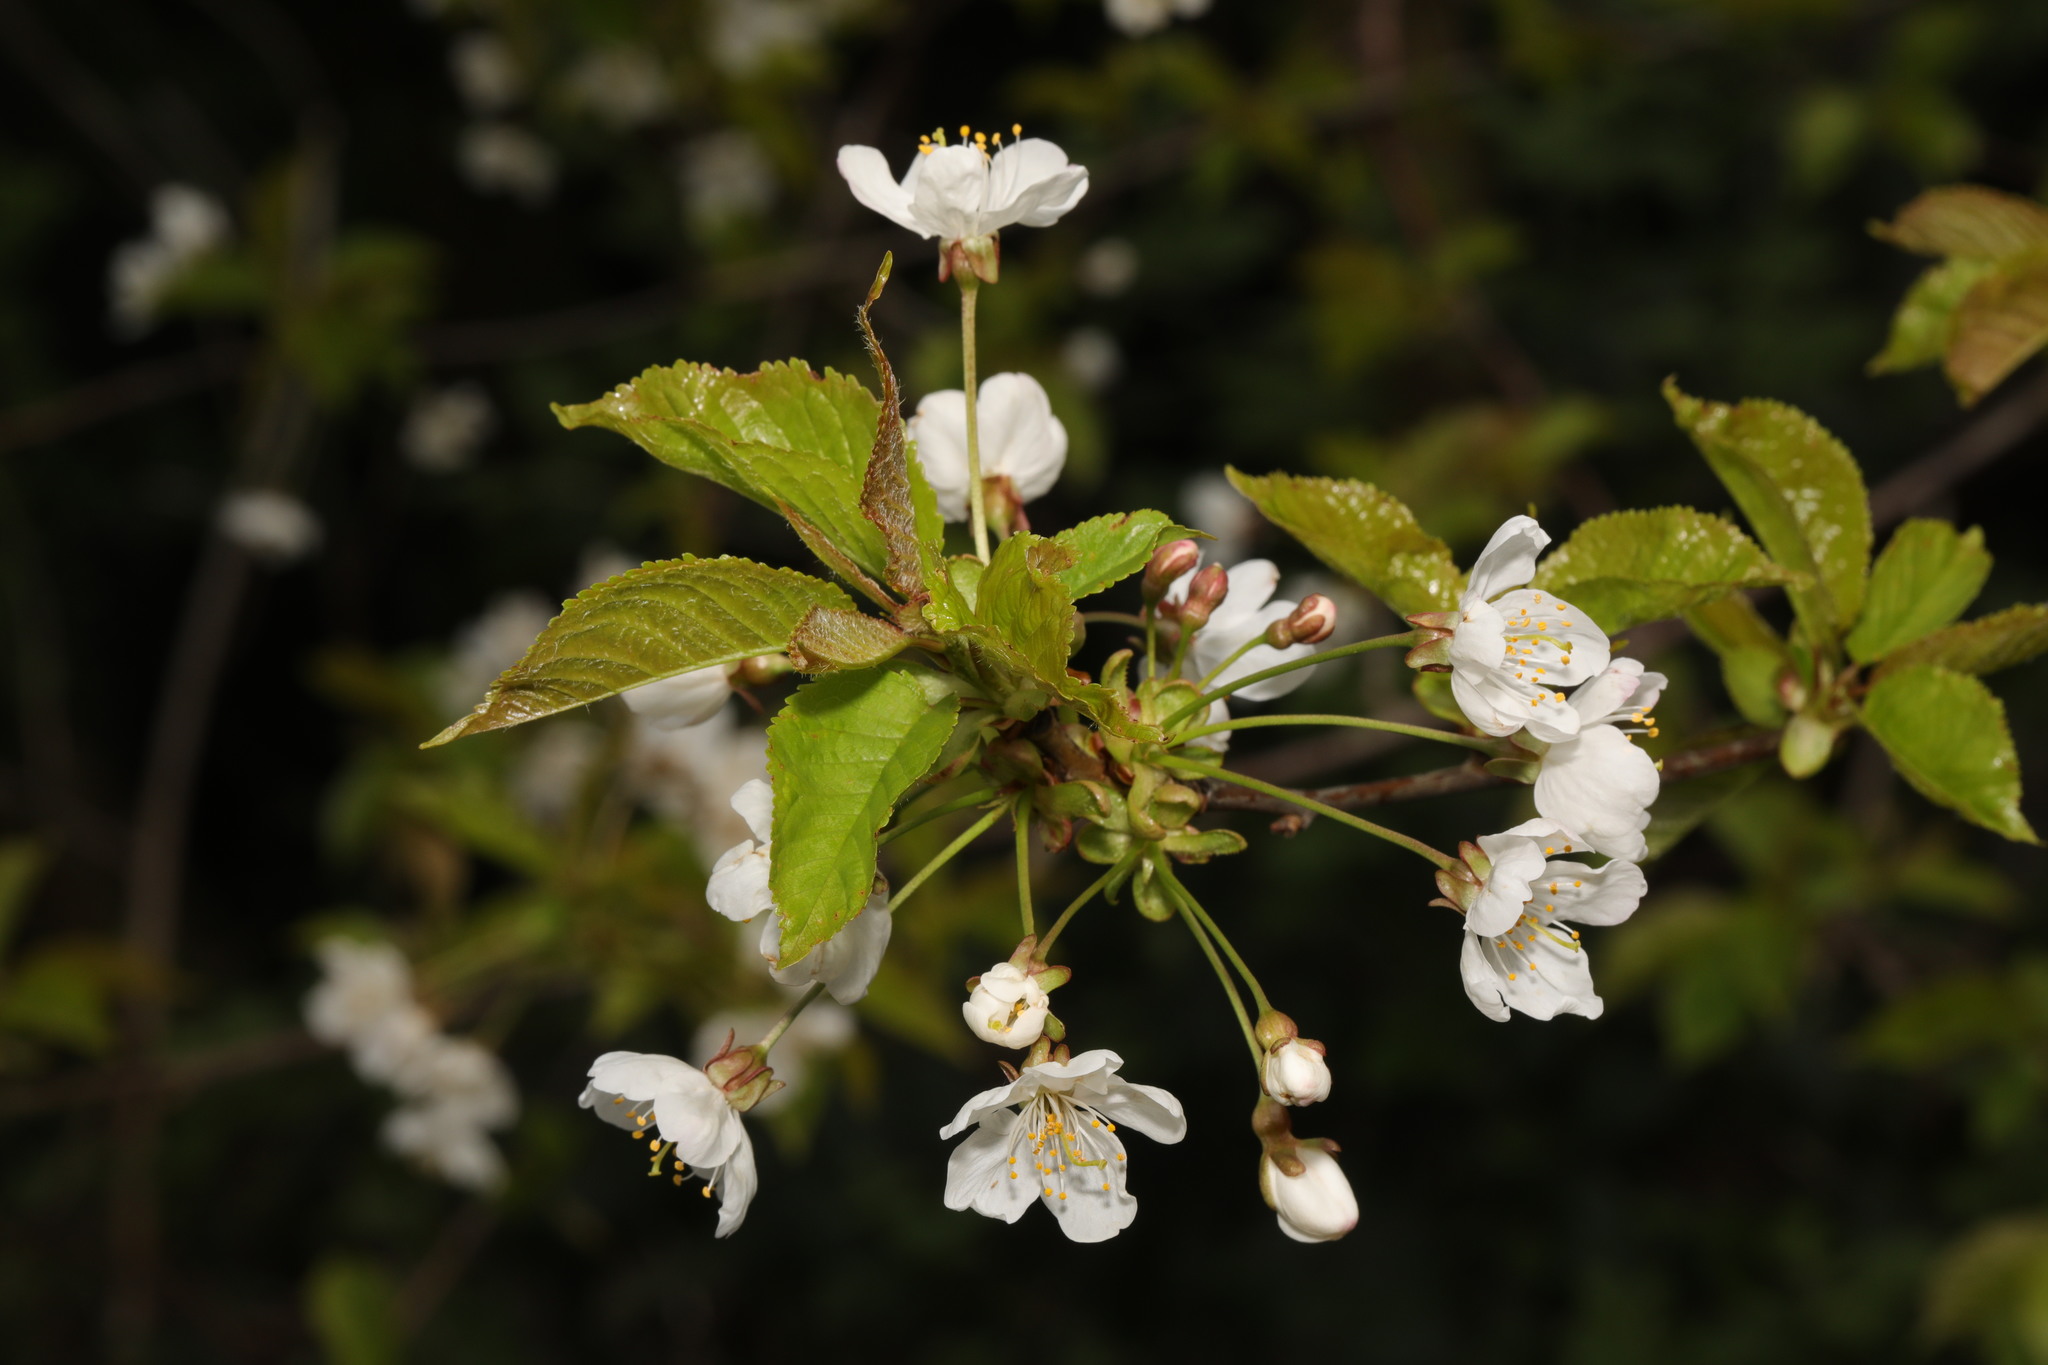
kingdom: Plantae
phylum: Tracheophyta
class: Magnoliopsida
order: Rosales
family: Rosaceae
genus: Prunus
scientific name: Prunus avium
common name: Sweet cherry
